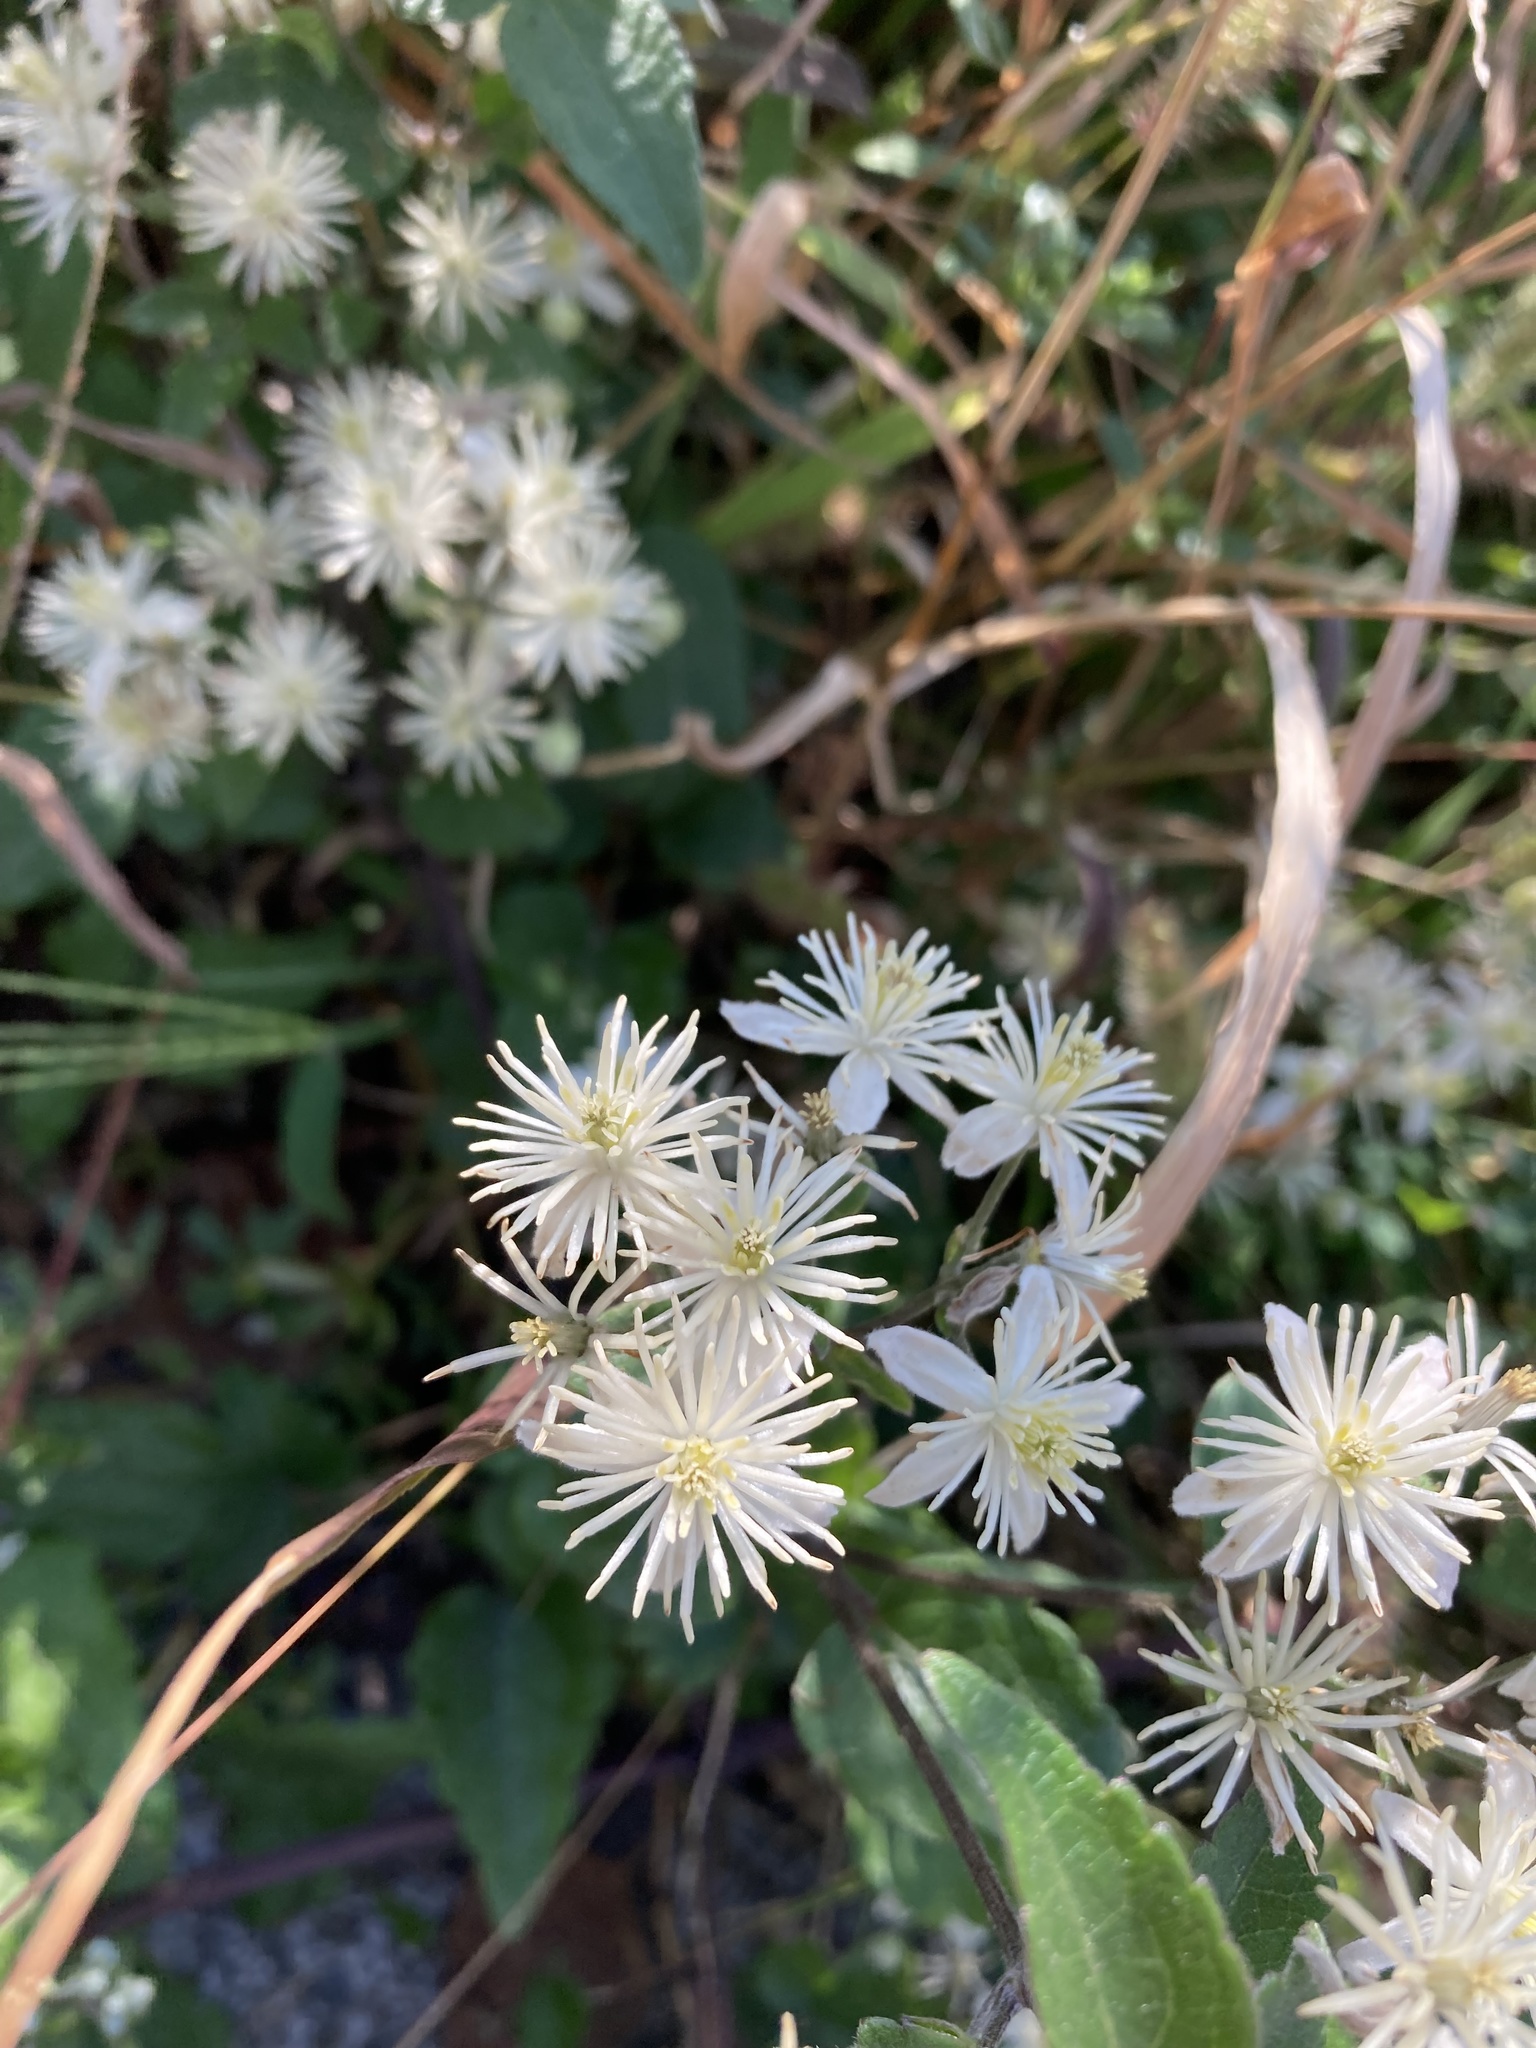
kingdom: Plantae
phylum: Tracheophyta
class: Magnoliopsida
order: Ranunculales
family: Ranunculaceae
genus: Clematis
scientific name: Clematis vitalba
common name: Evergreen clematis
